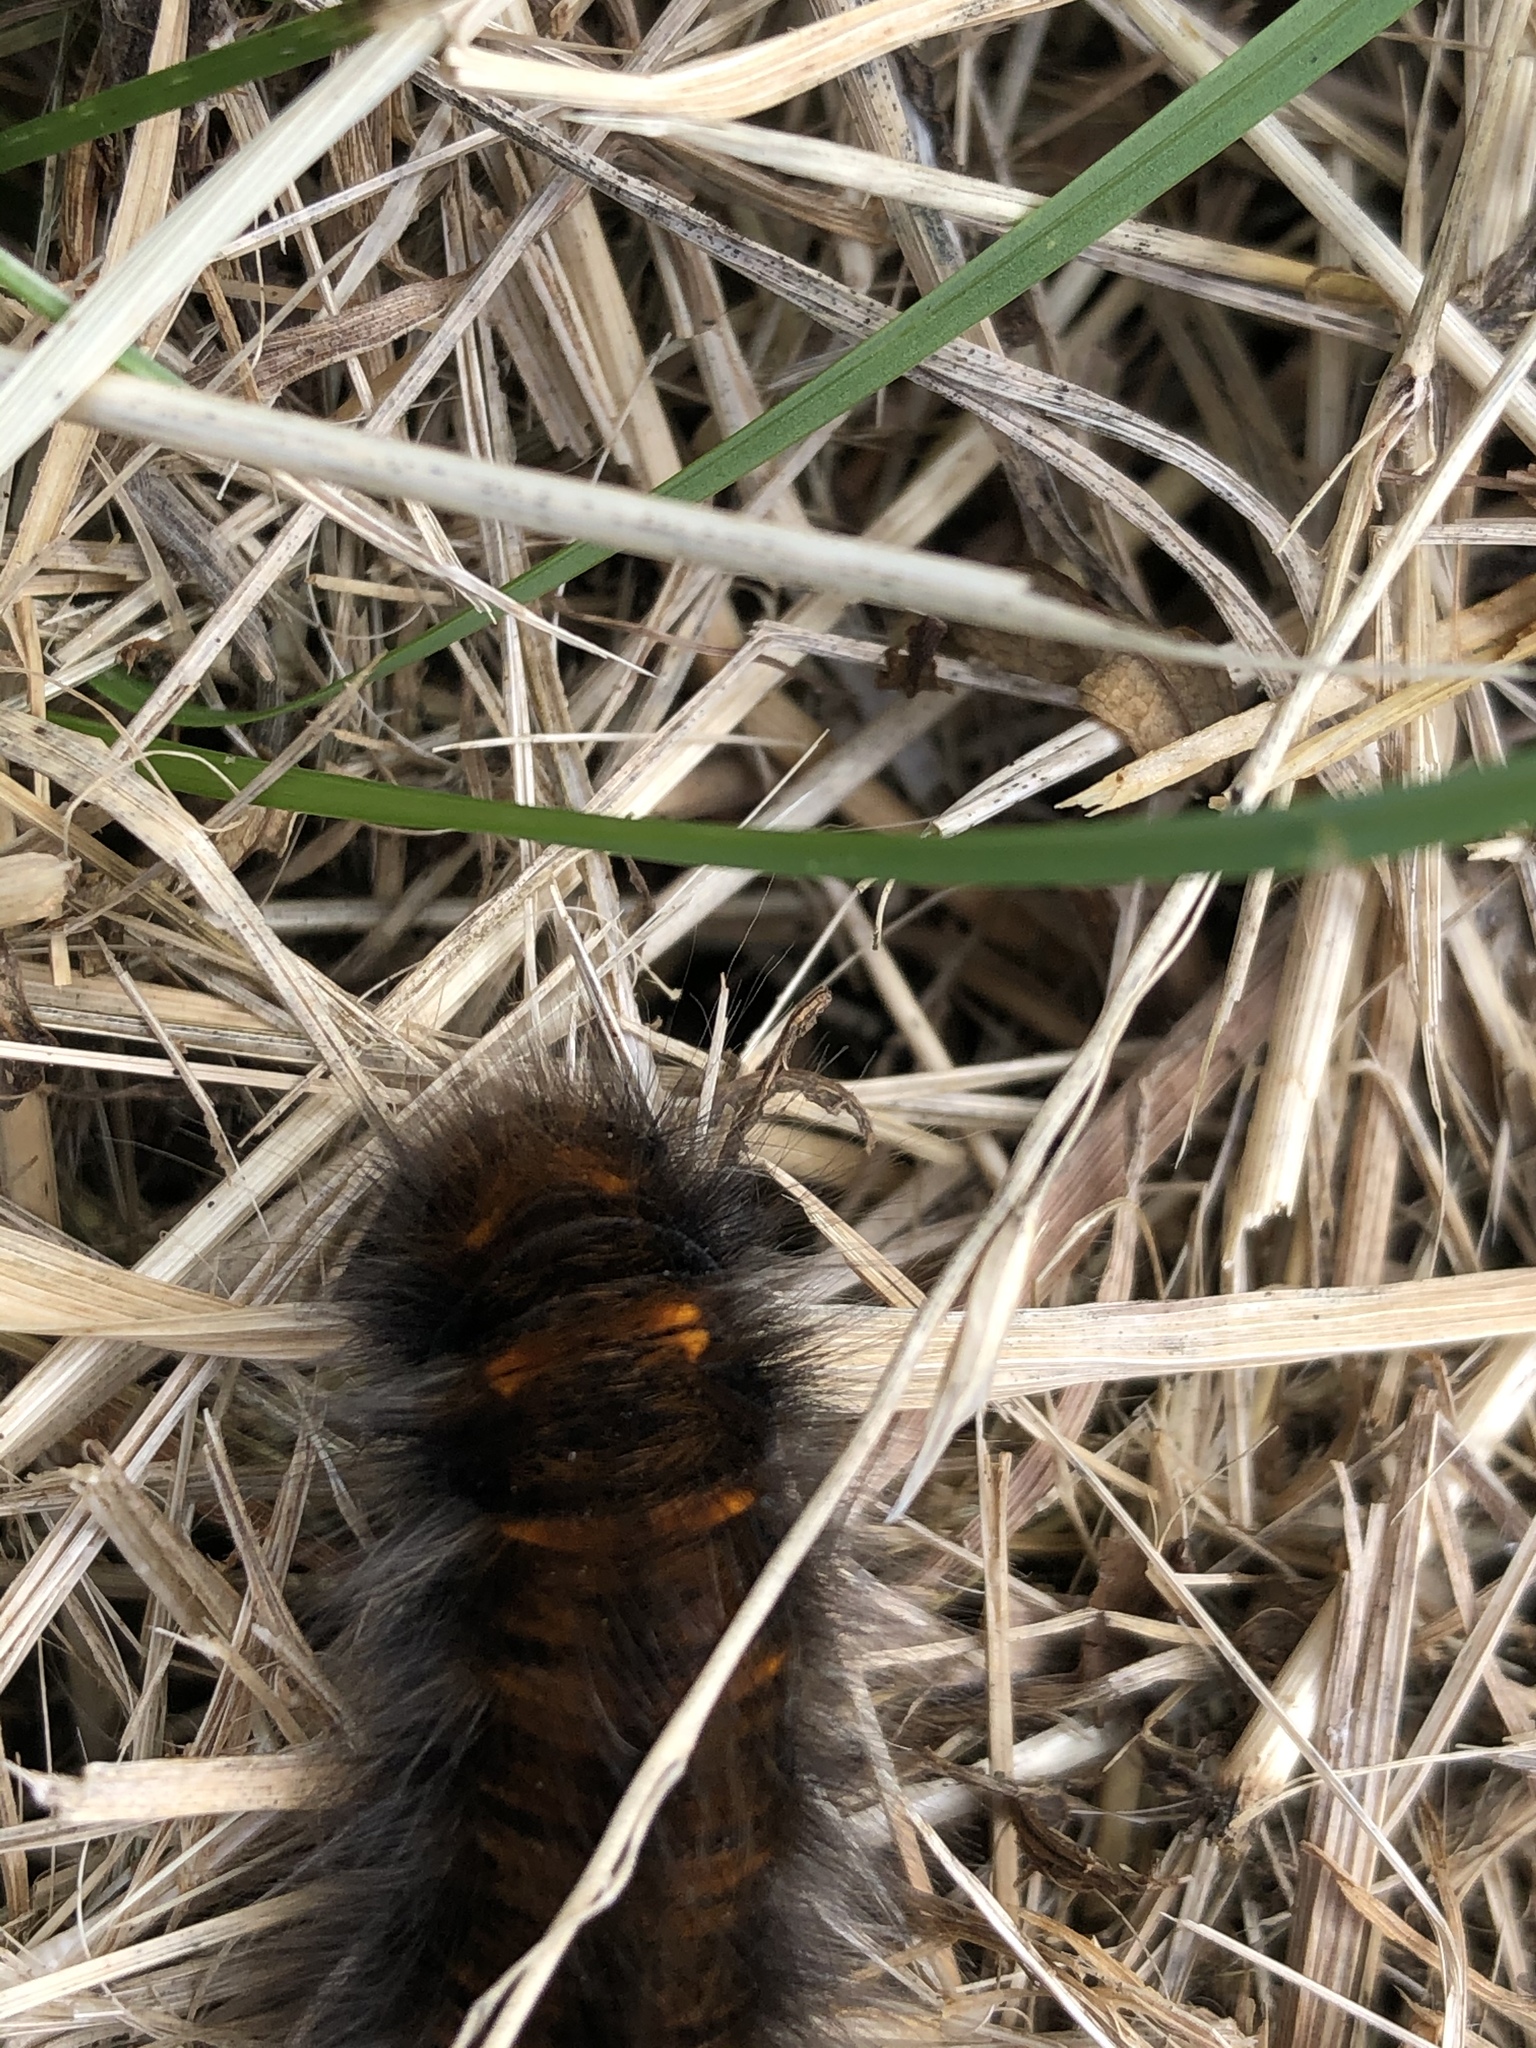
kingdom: Animalia
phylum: Arthropoda
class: Insecta
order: Lepidoptera
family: Lasiocampidae
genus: Macrothylacia
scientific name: Macrothylacia rubi
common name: Fox moth
